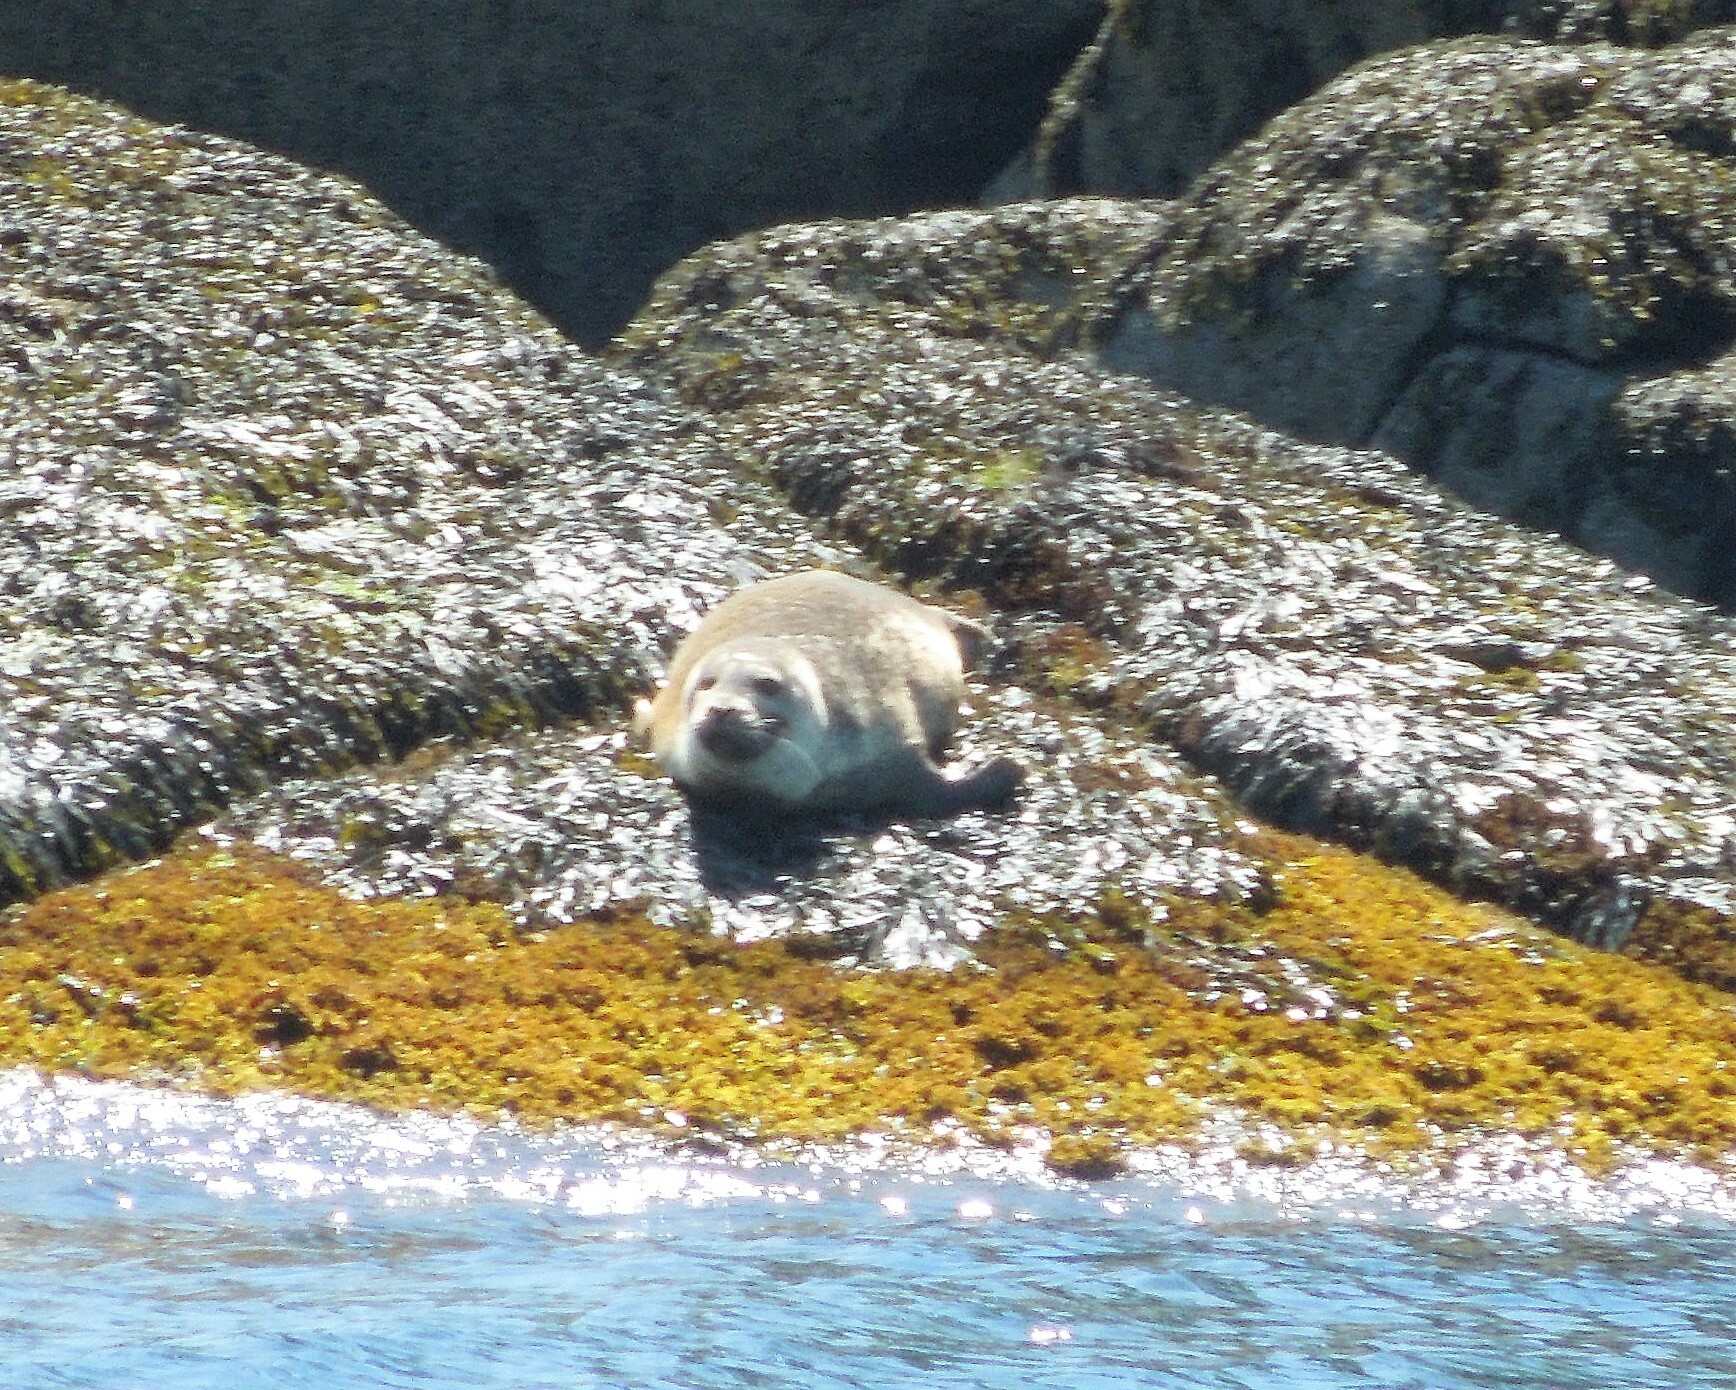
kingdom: Animalia
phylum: Chordata
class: Mammalia
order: Carnivora
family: Phocidae
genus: Phoca
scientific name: Phoca vitulina
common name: Harbor seal
